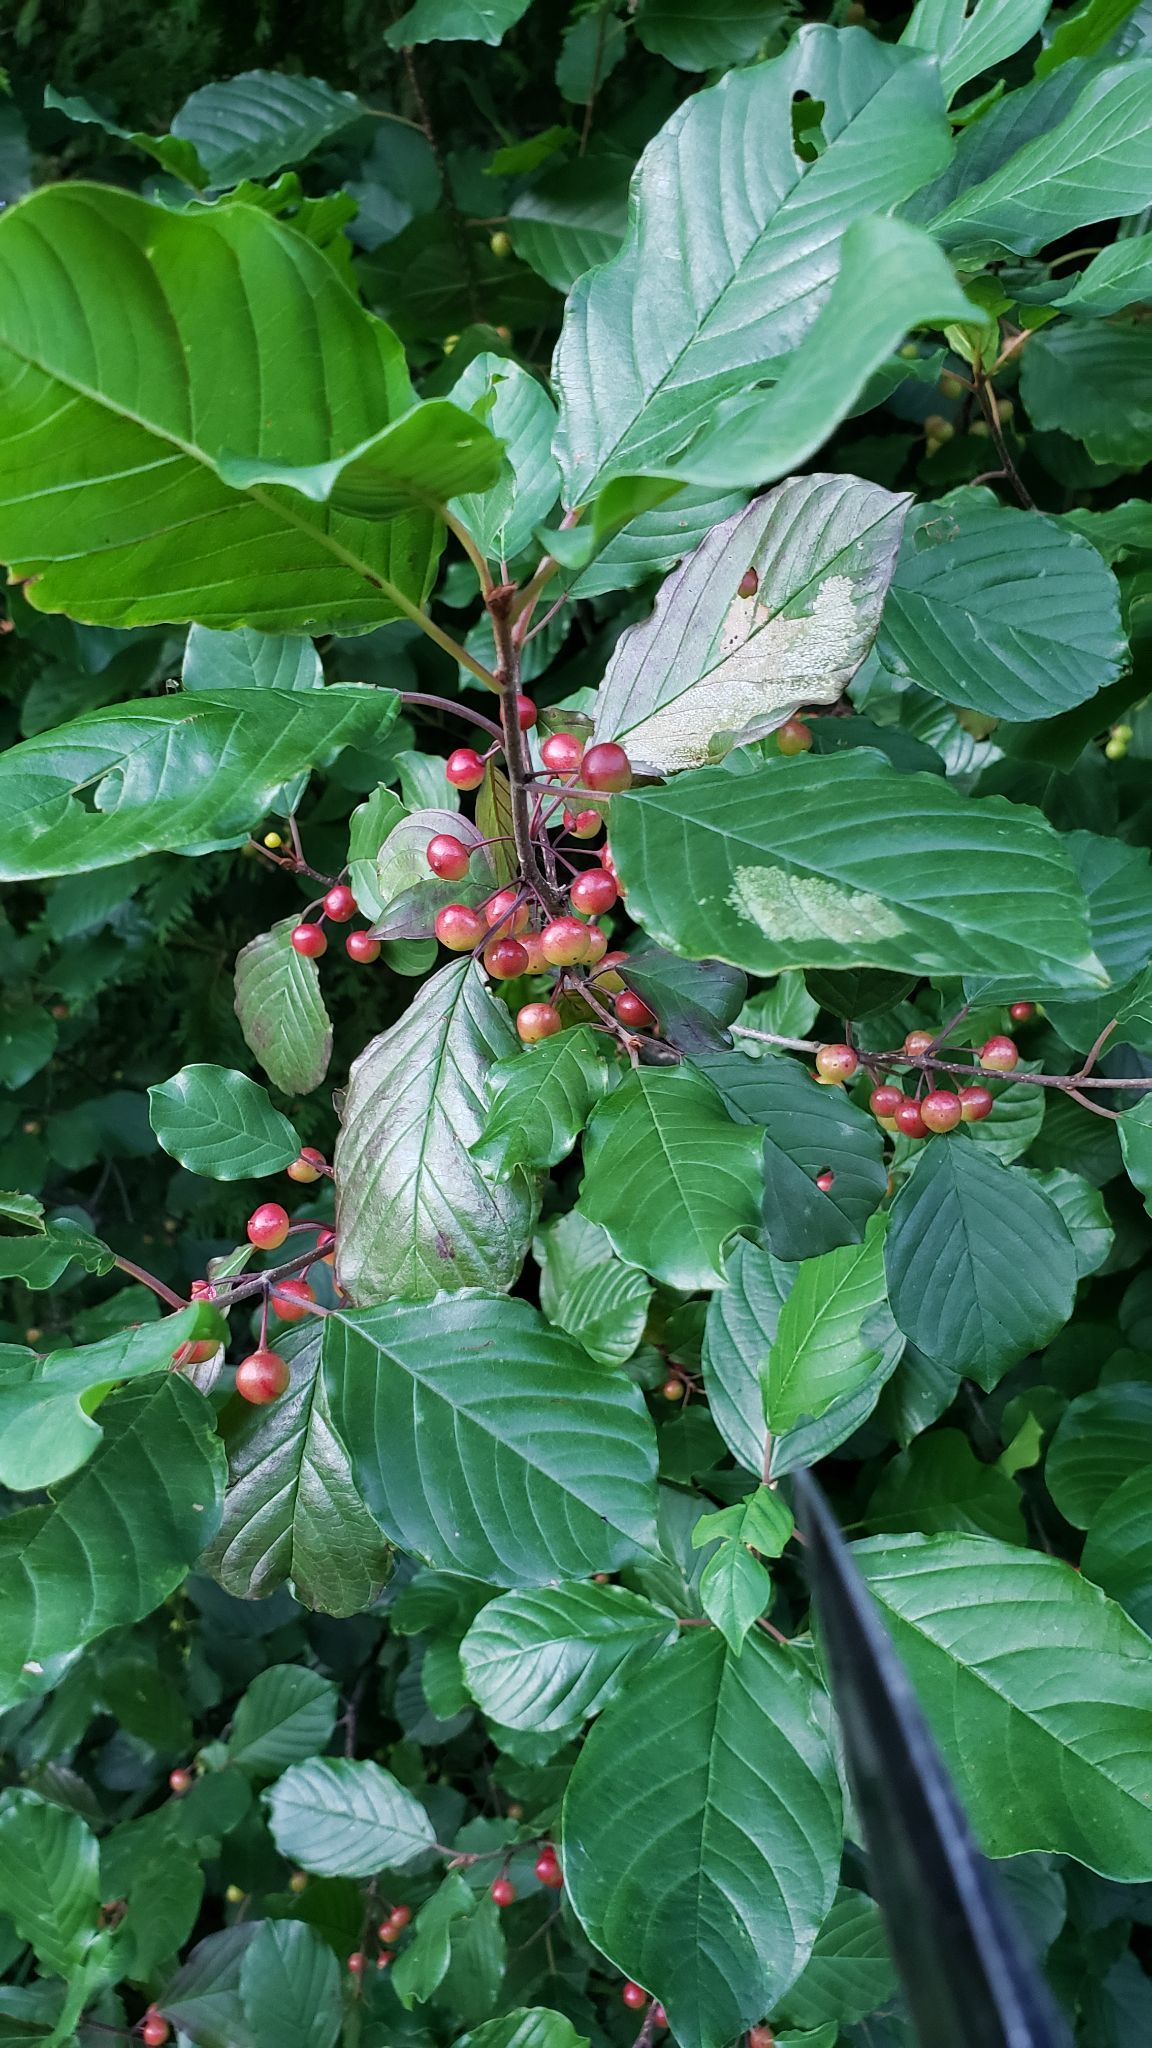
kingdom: Plantae
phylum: Tracheophyta
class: Magnoliopsida
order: Rosales
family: Rhamnaceae
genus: Frangula
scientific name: Frangula alnus
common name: Alder buckthorn
